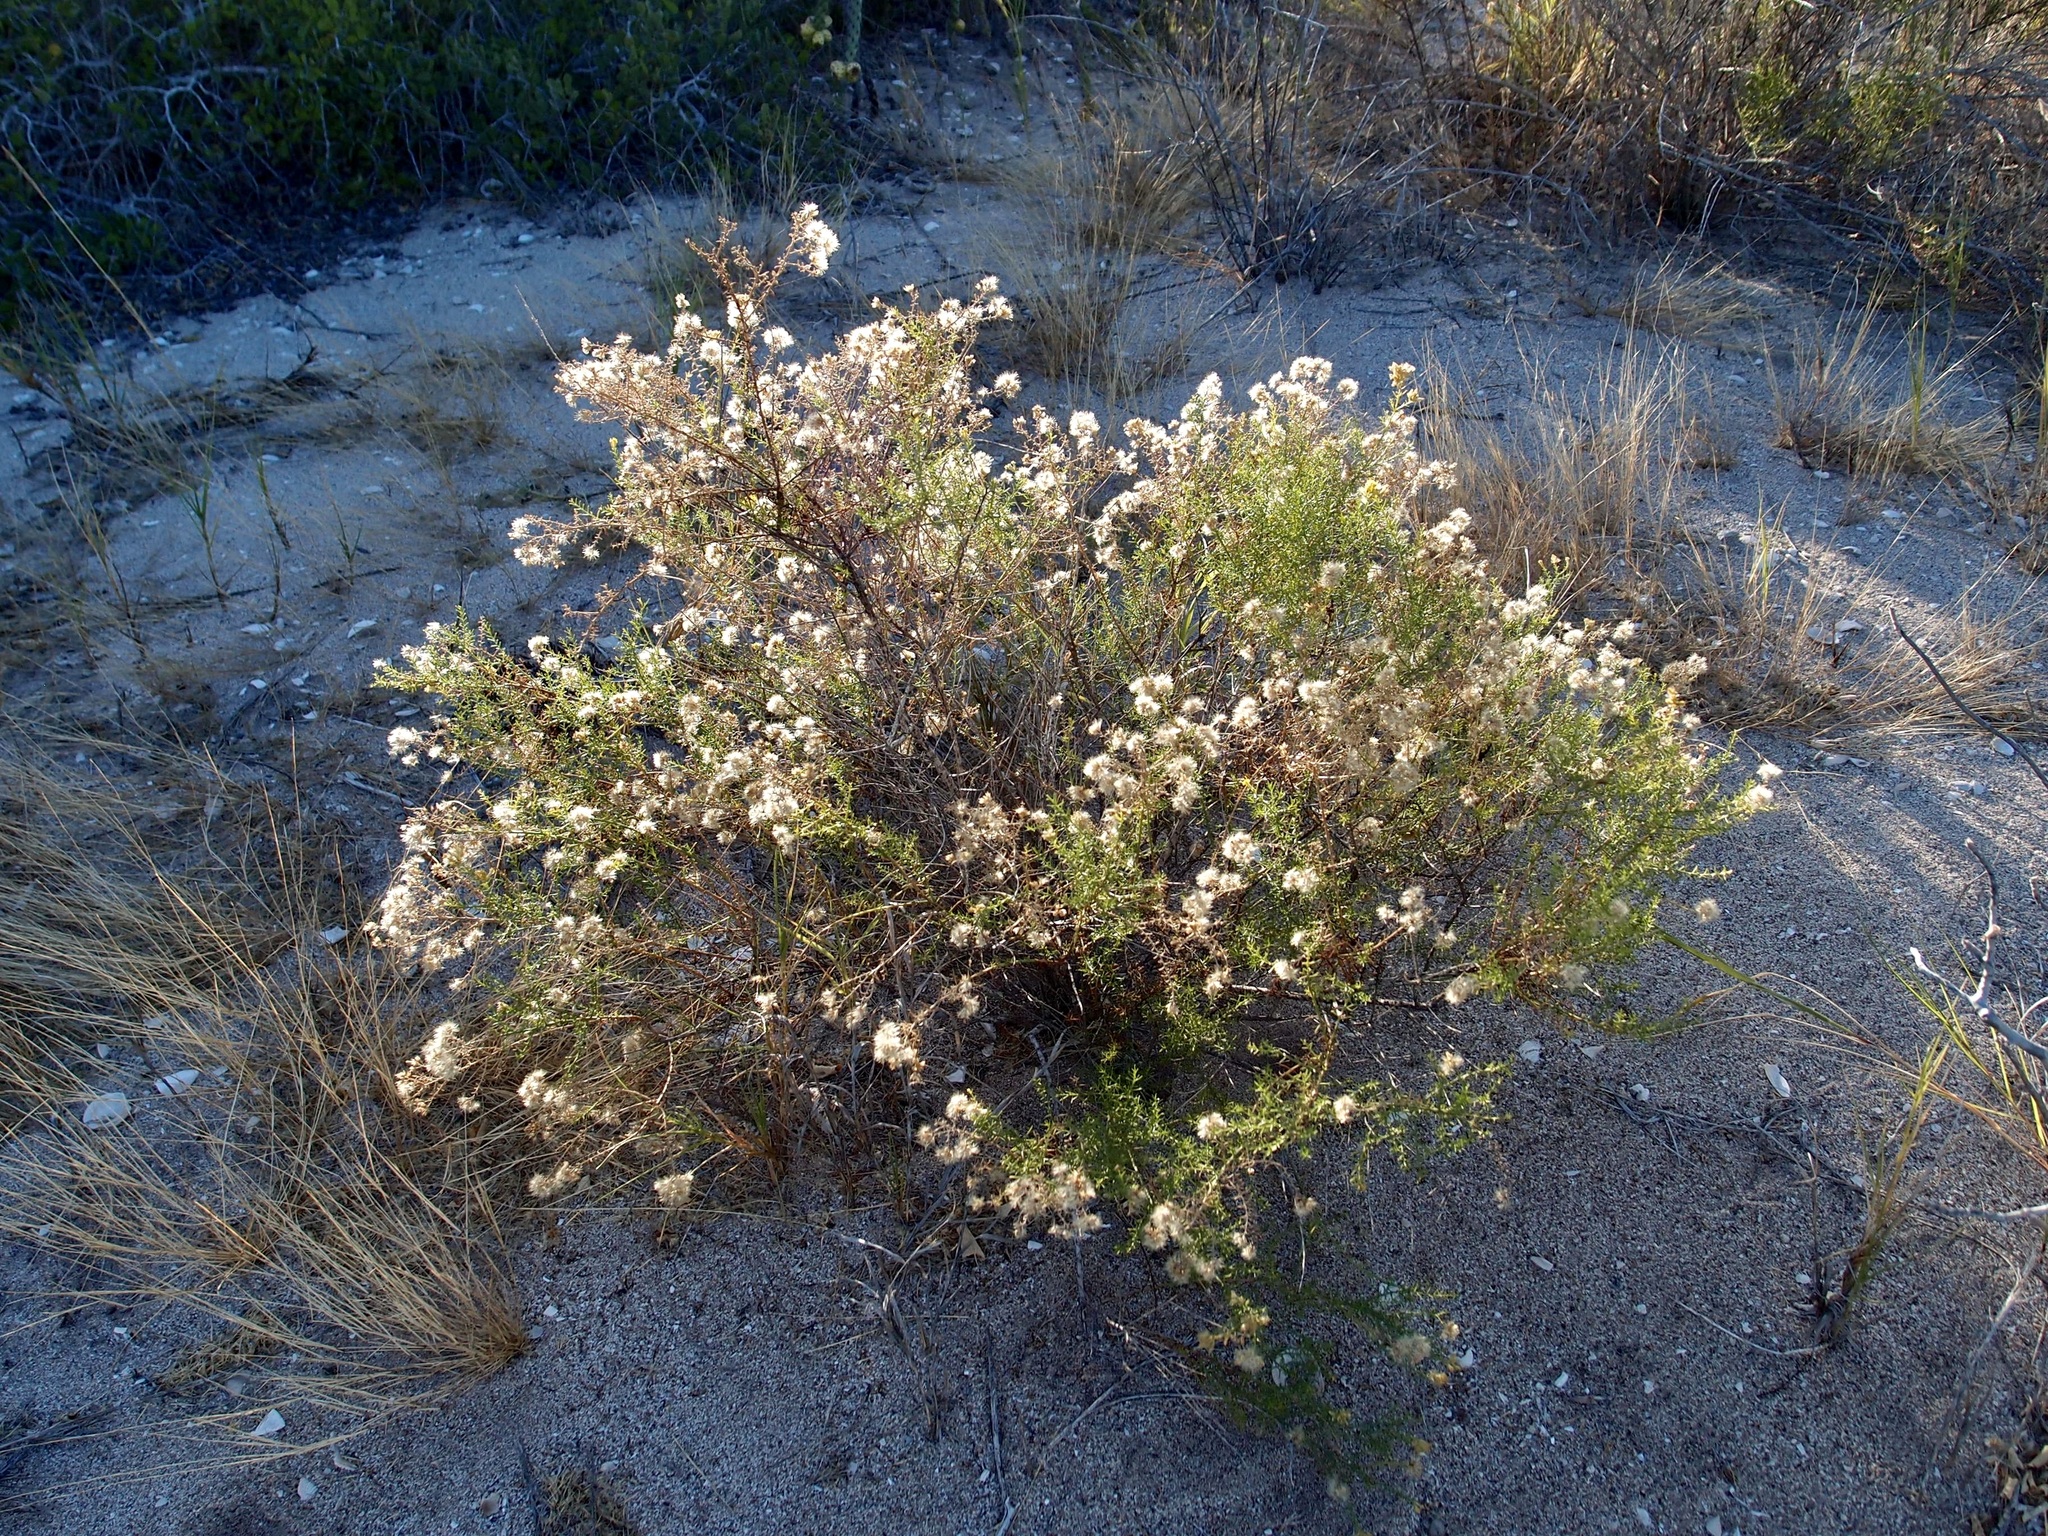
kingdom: Plantae
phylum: Tracheophyta
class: Magnoliopsida
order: Asterales
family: Asteraceae
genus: Gundlachia
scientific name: Gundlachia diffusa
